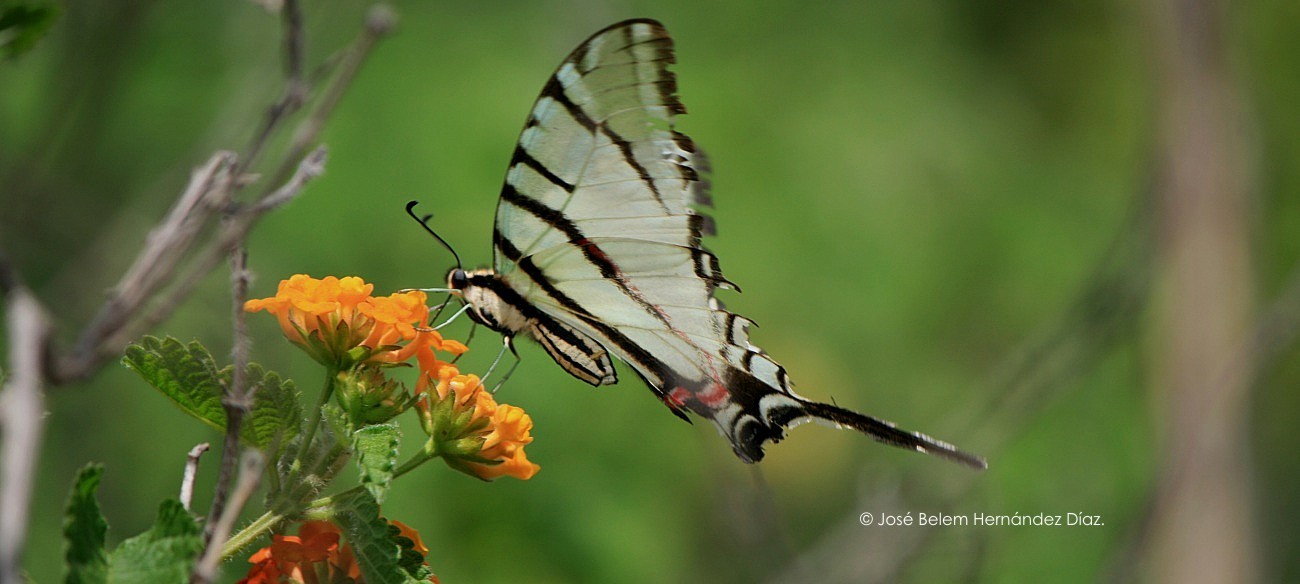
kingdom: Animalia
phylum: Arthropoda
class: Insecta
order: Lepidoptera
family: Papilionidae
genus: Protographium
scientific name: Protographium epidaus
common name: Mexican kite swallowtail
